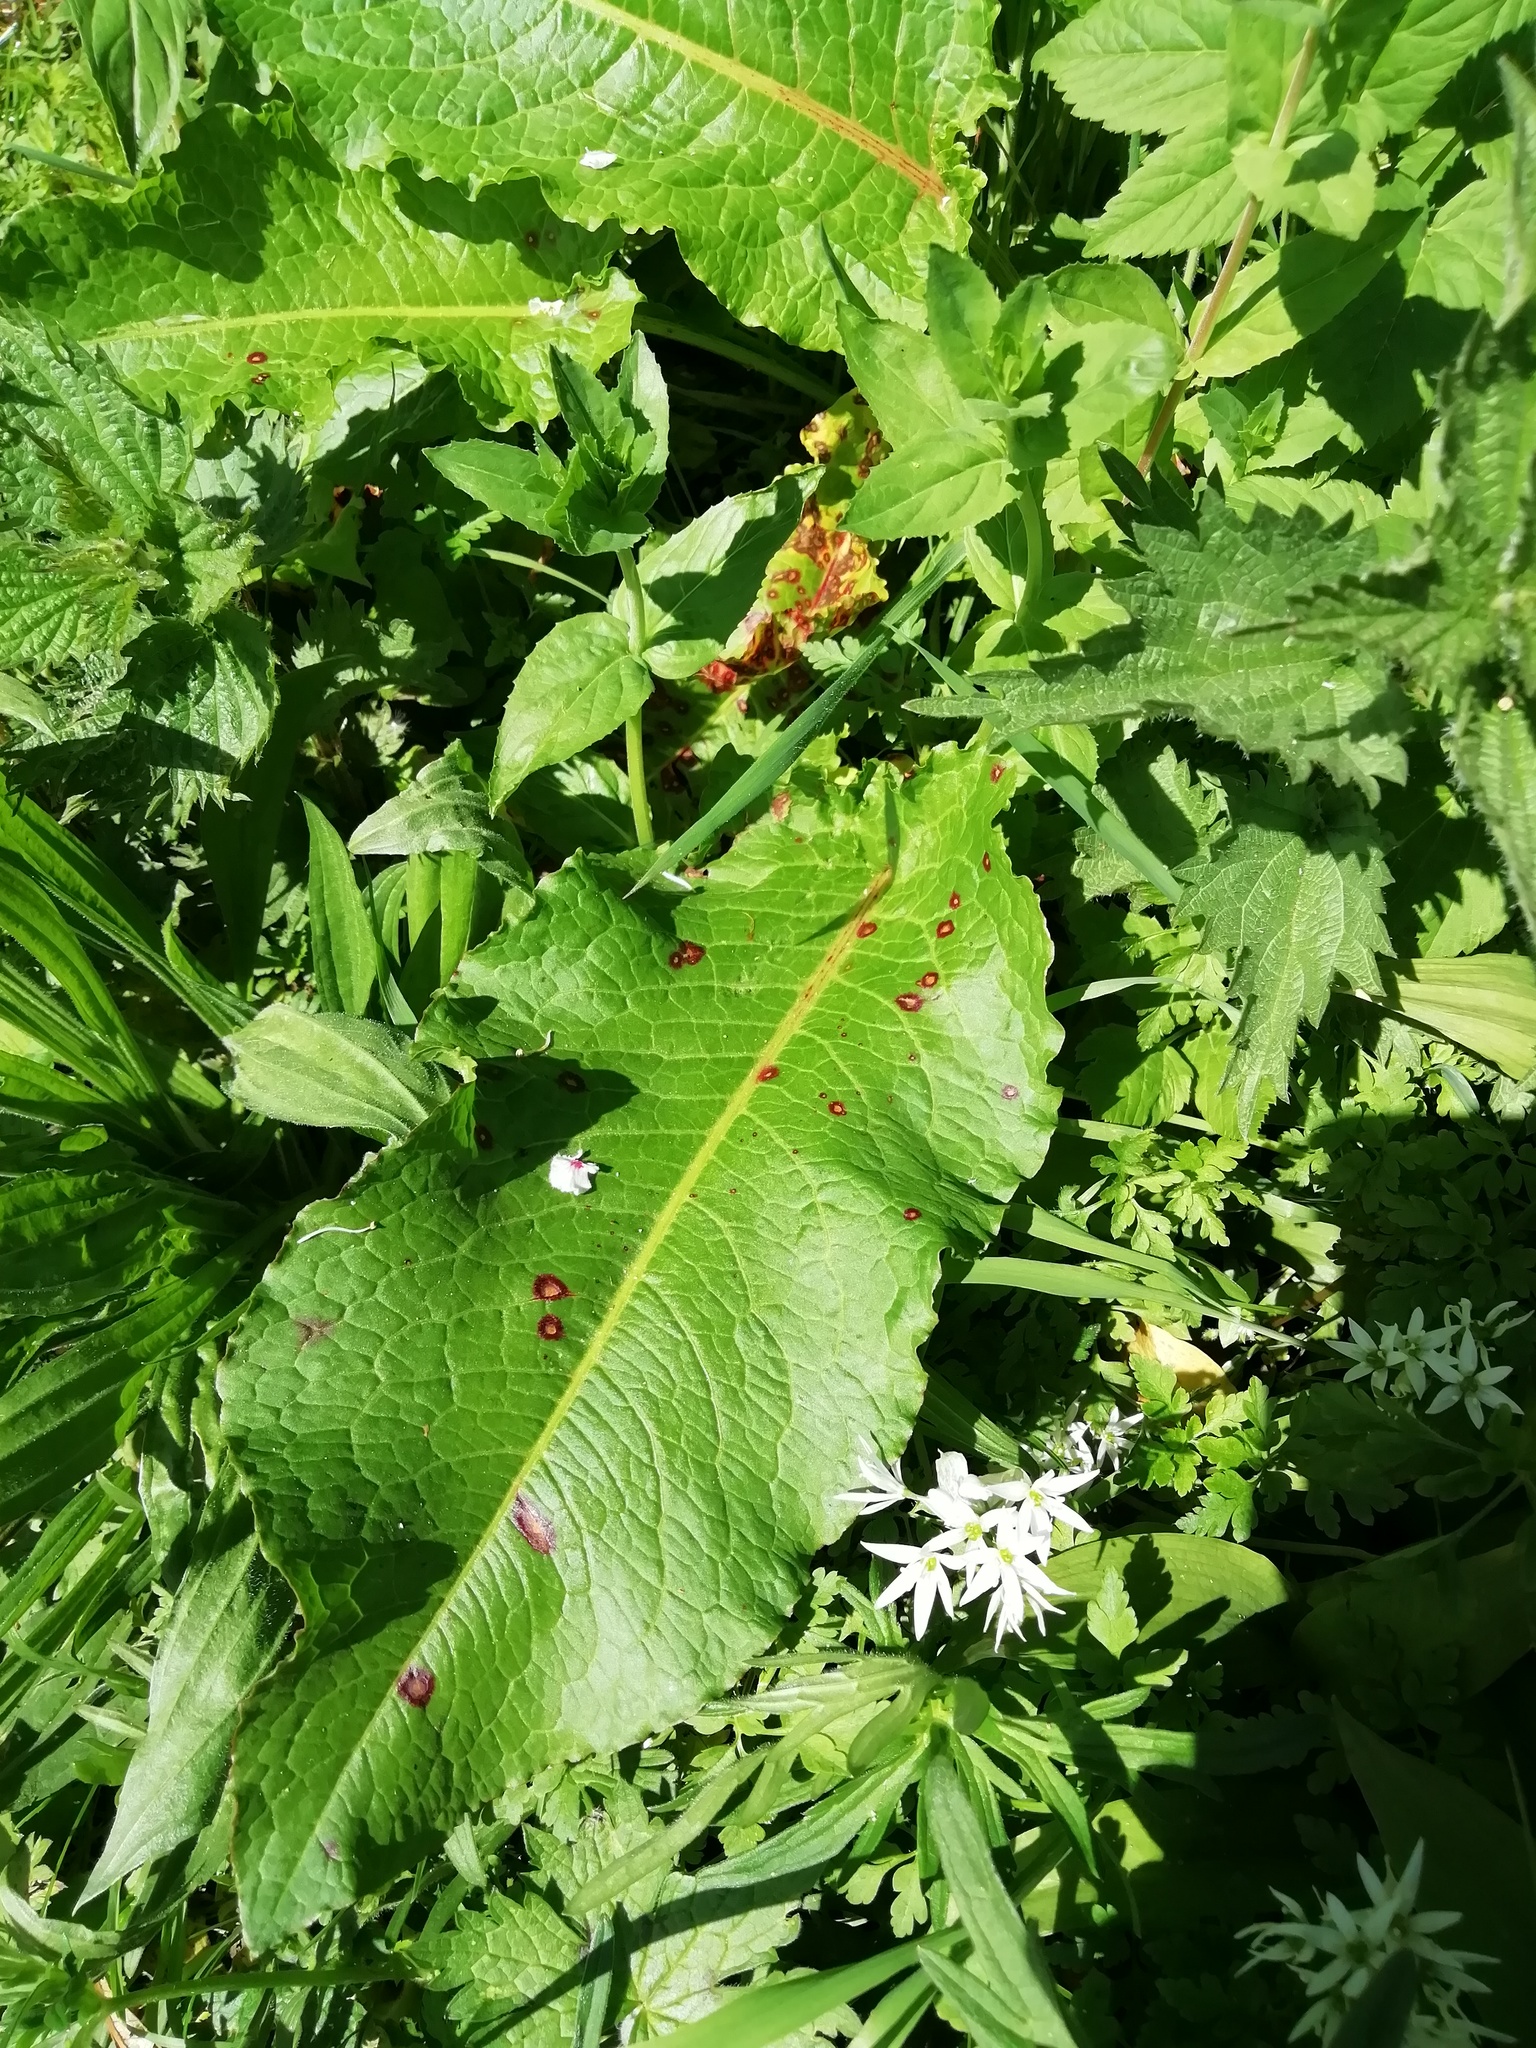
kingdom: Plantae
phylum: Tracheophyta
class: Magnoliopsida
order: Caryophyllales
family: Polygonaceae
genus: Rumex
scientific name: Rumex obtusifolius
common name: Bitter dock
